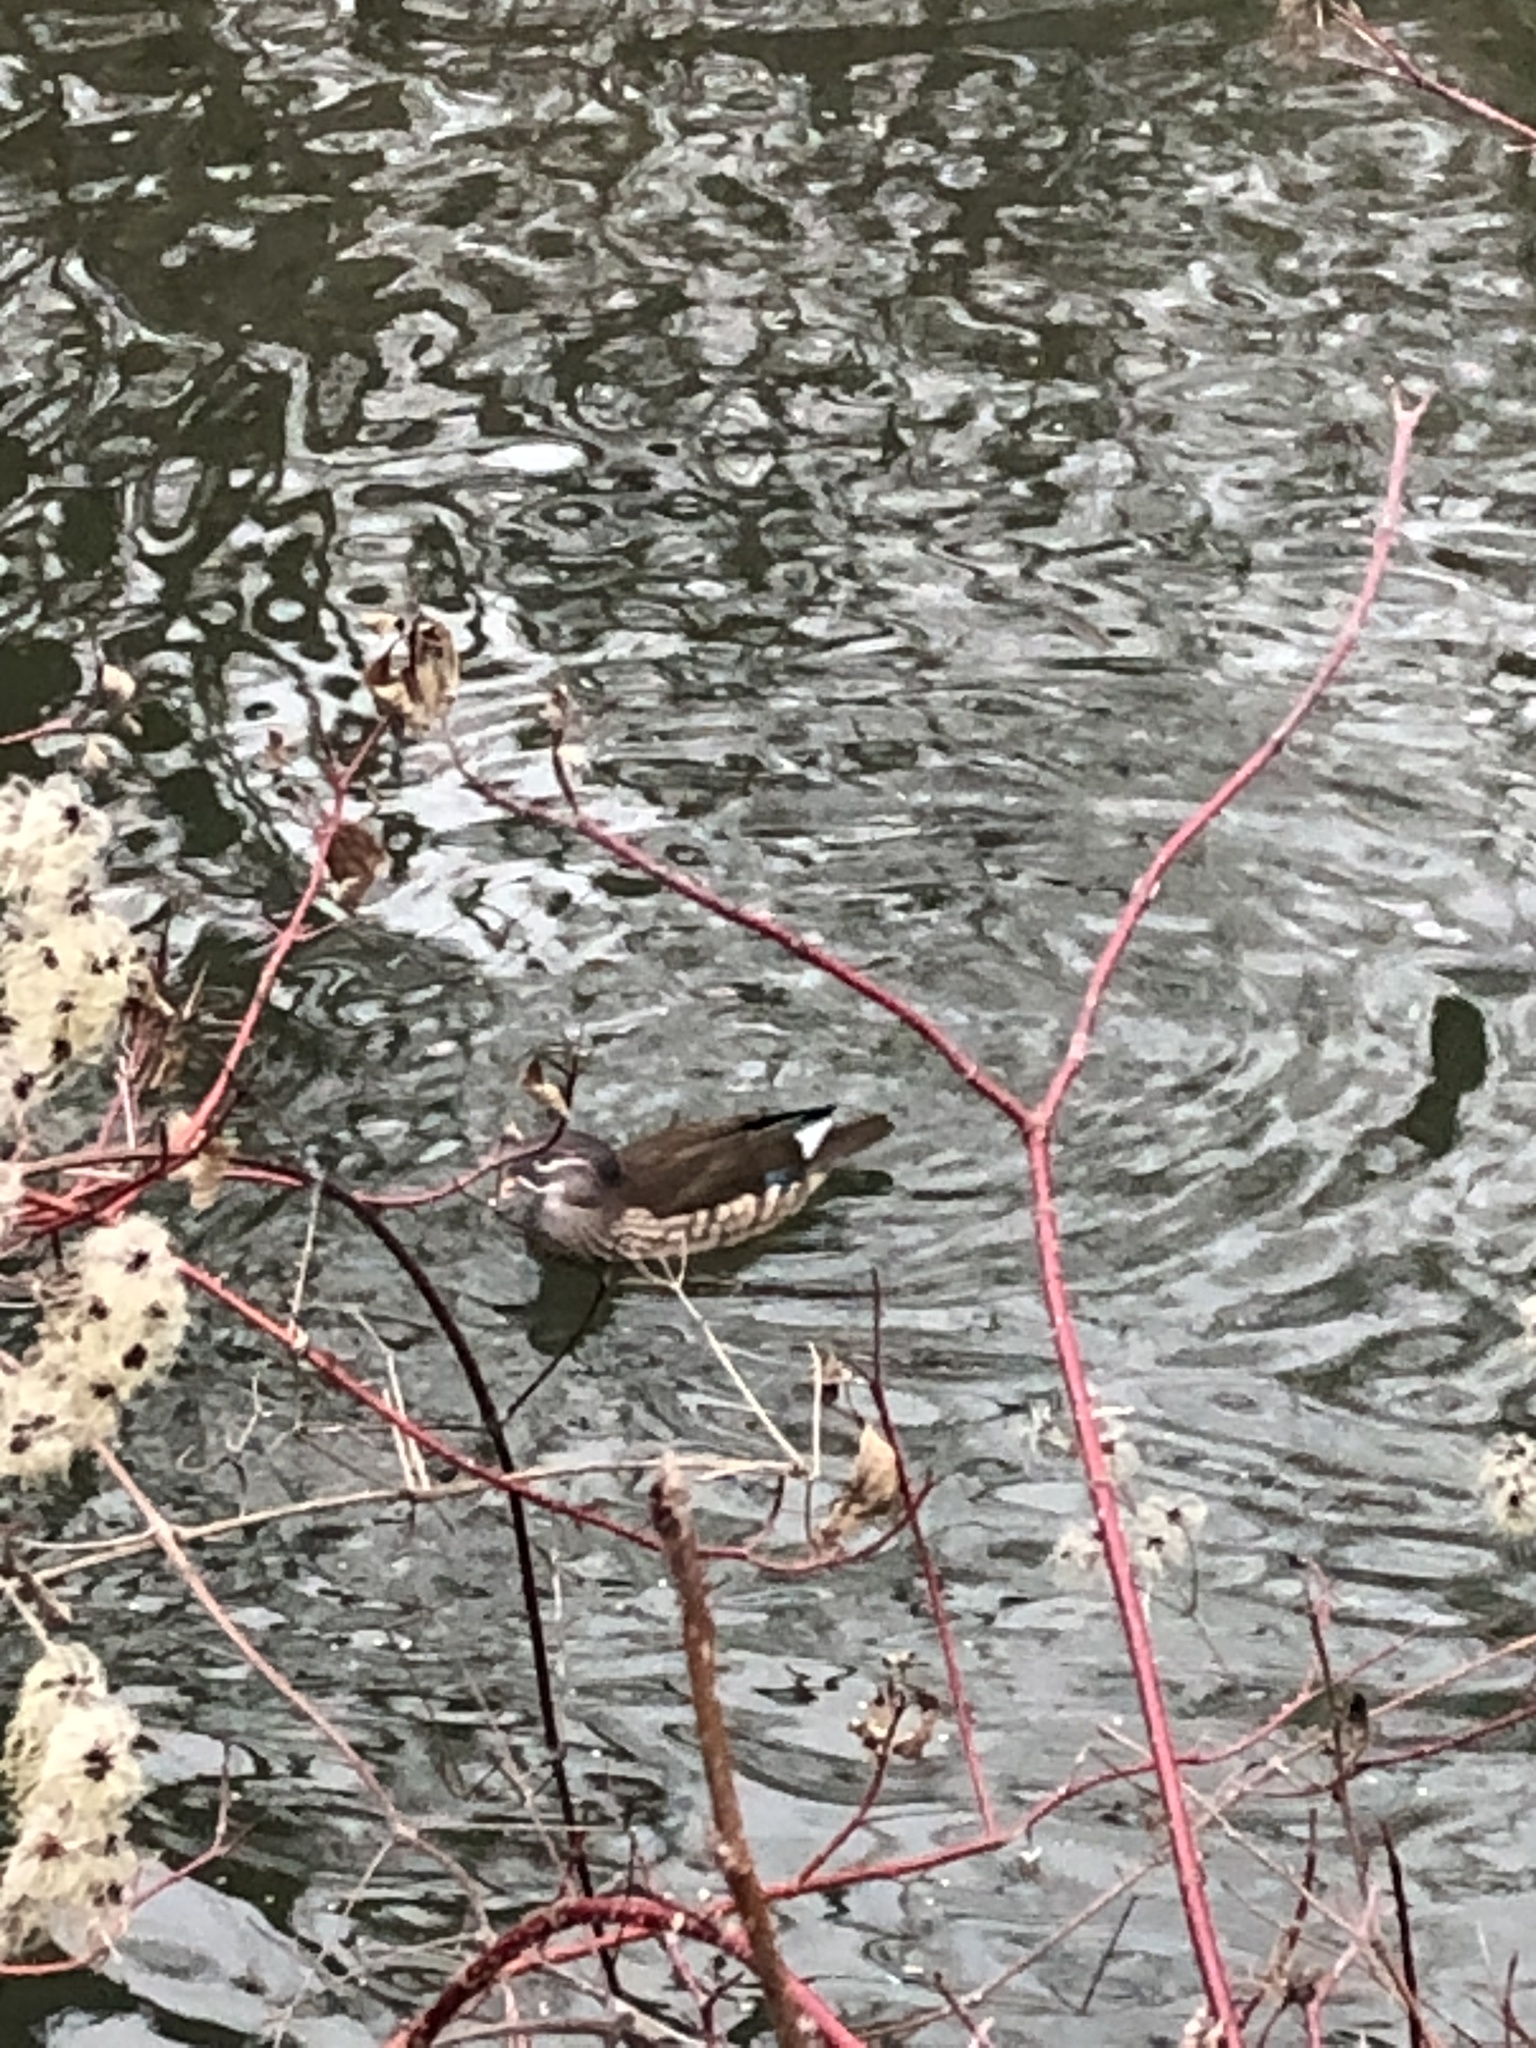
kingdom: Animalia
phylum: Chordata
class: Aves
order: Anseriformes
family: Anatidae
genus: Aix
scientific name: Aix galericulata
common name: Mandarin duck
